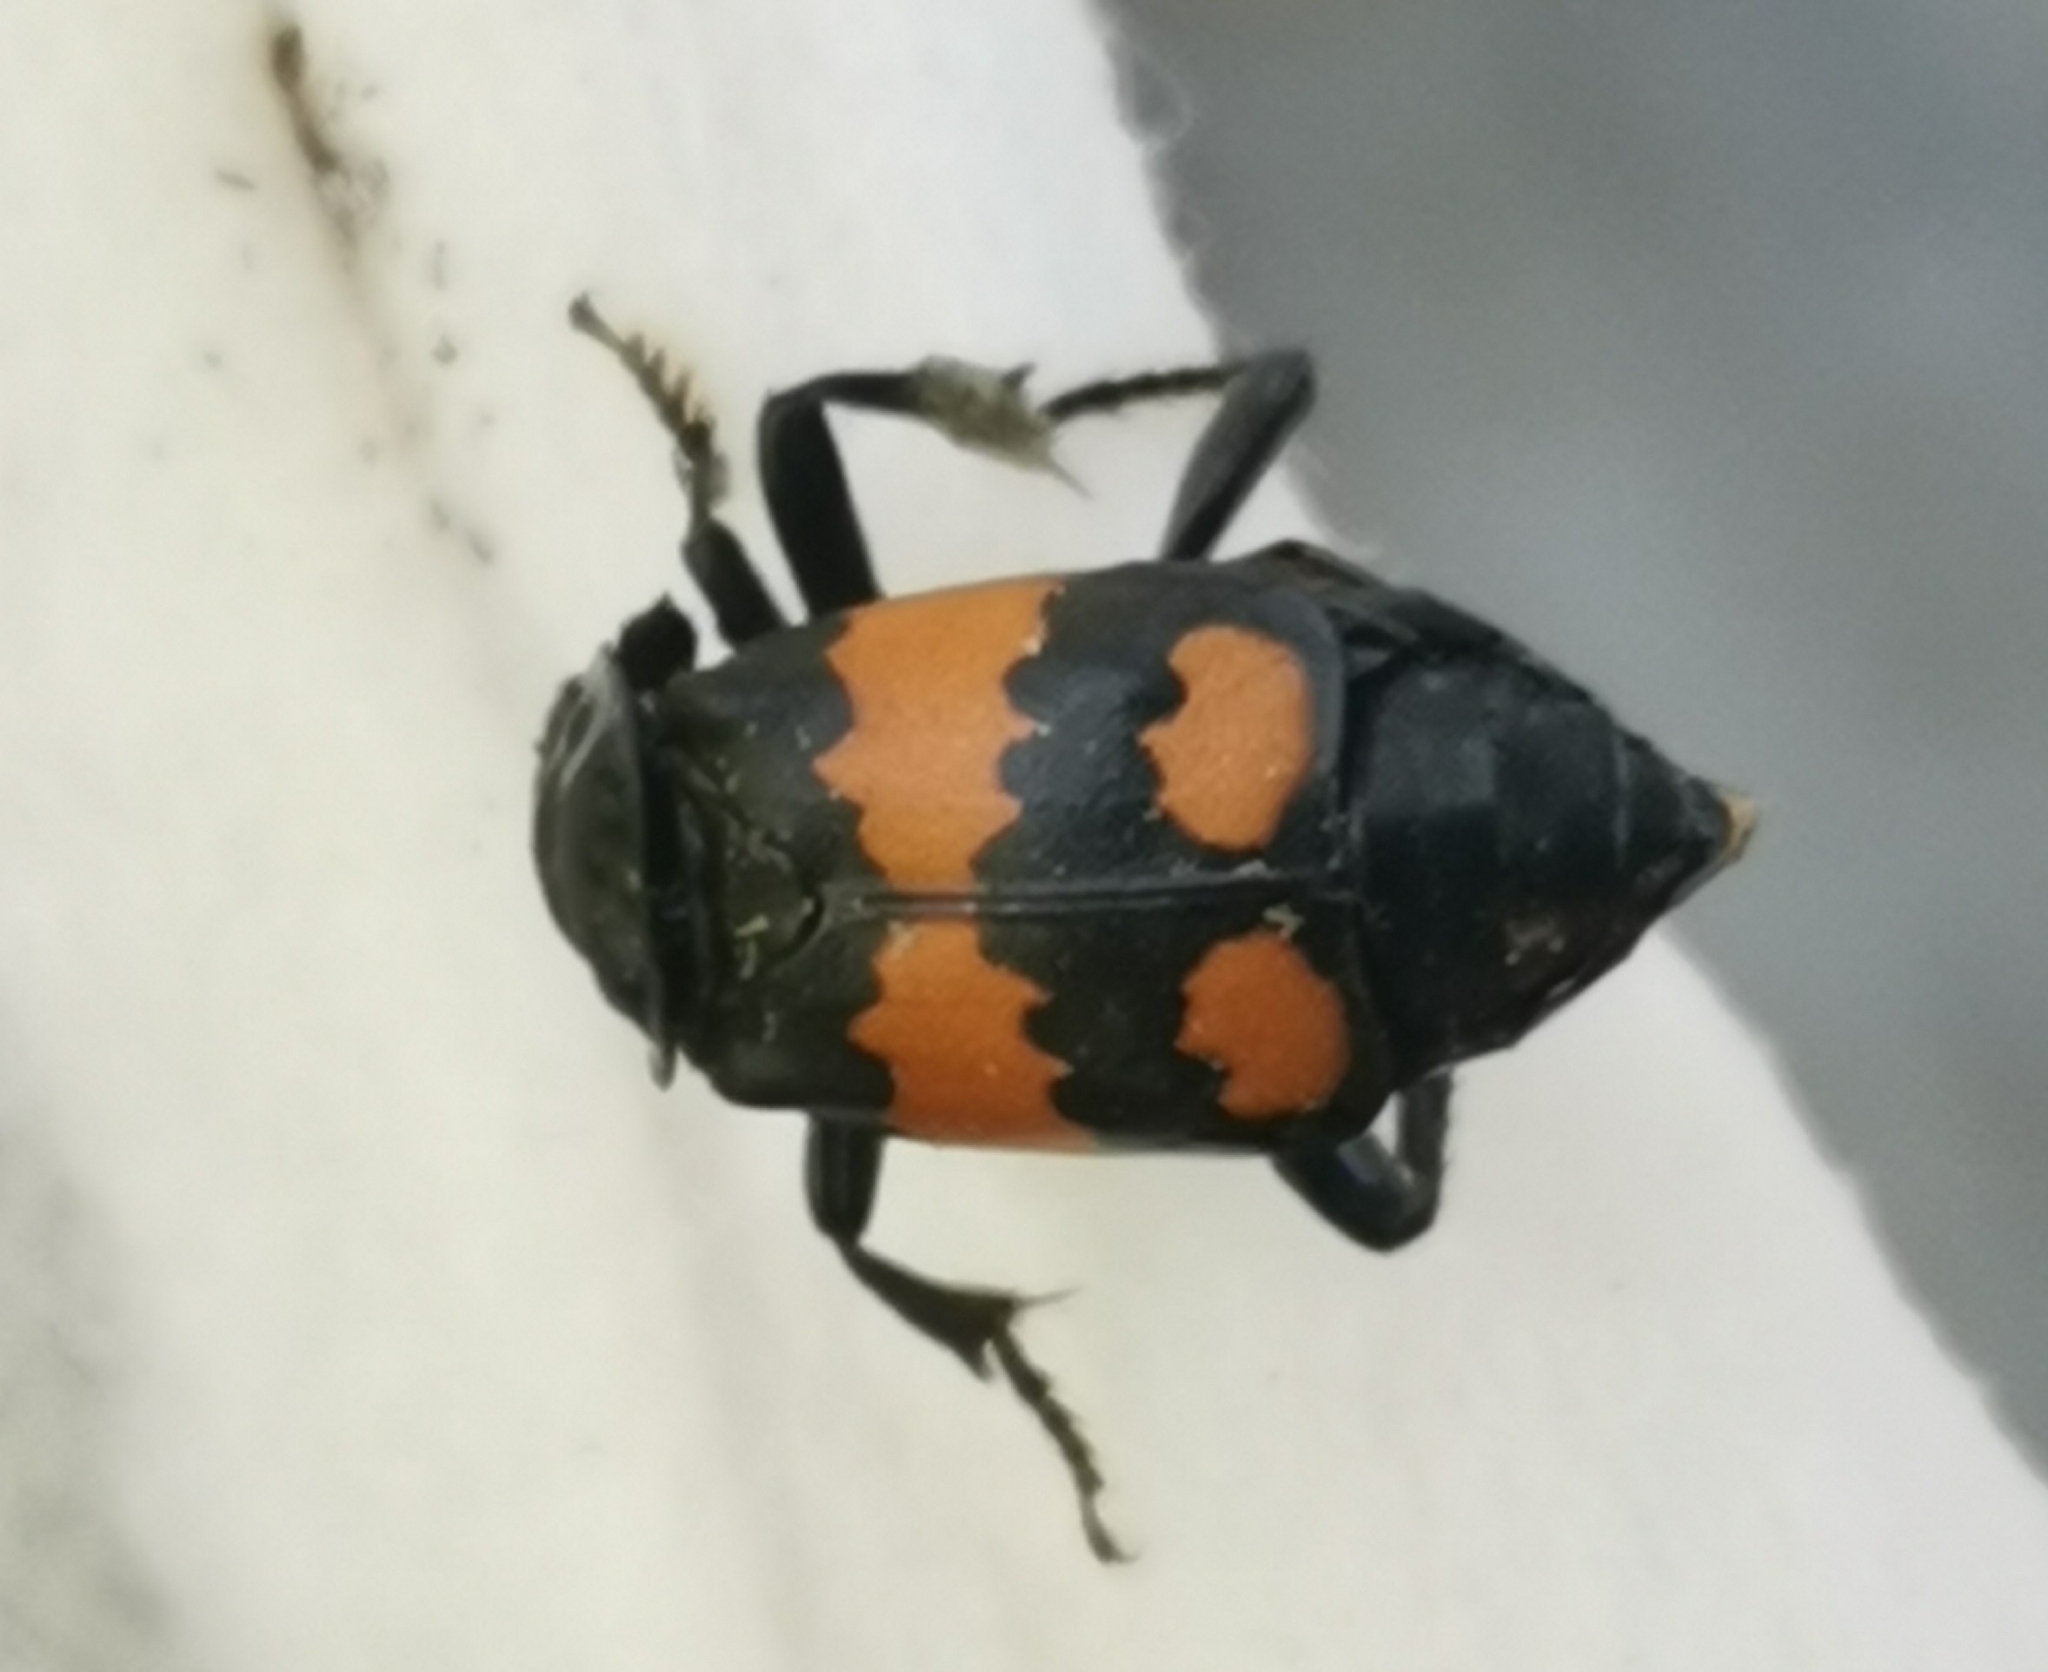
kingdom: Animalia
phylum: Arthropoda
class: Insecta
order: Coleoptera
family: Staphylinidae
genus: Nicrophorus
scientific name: Nicrophorus vespilloides
